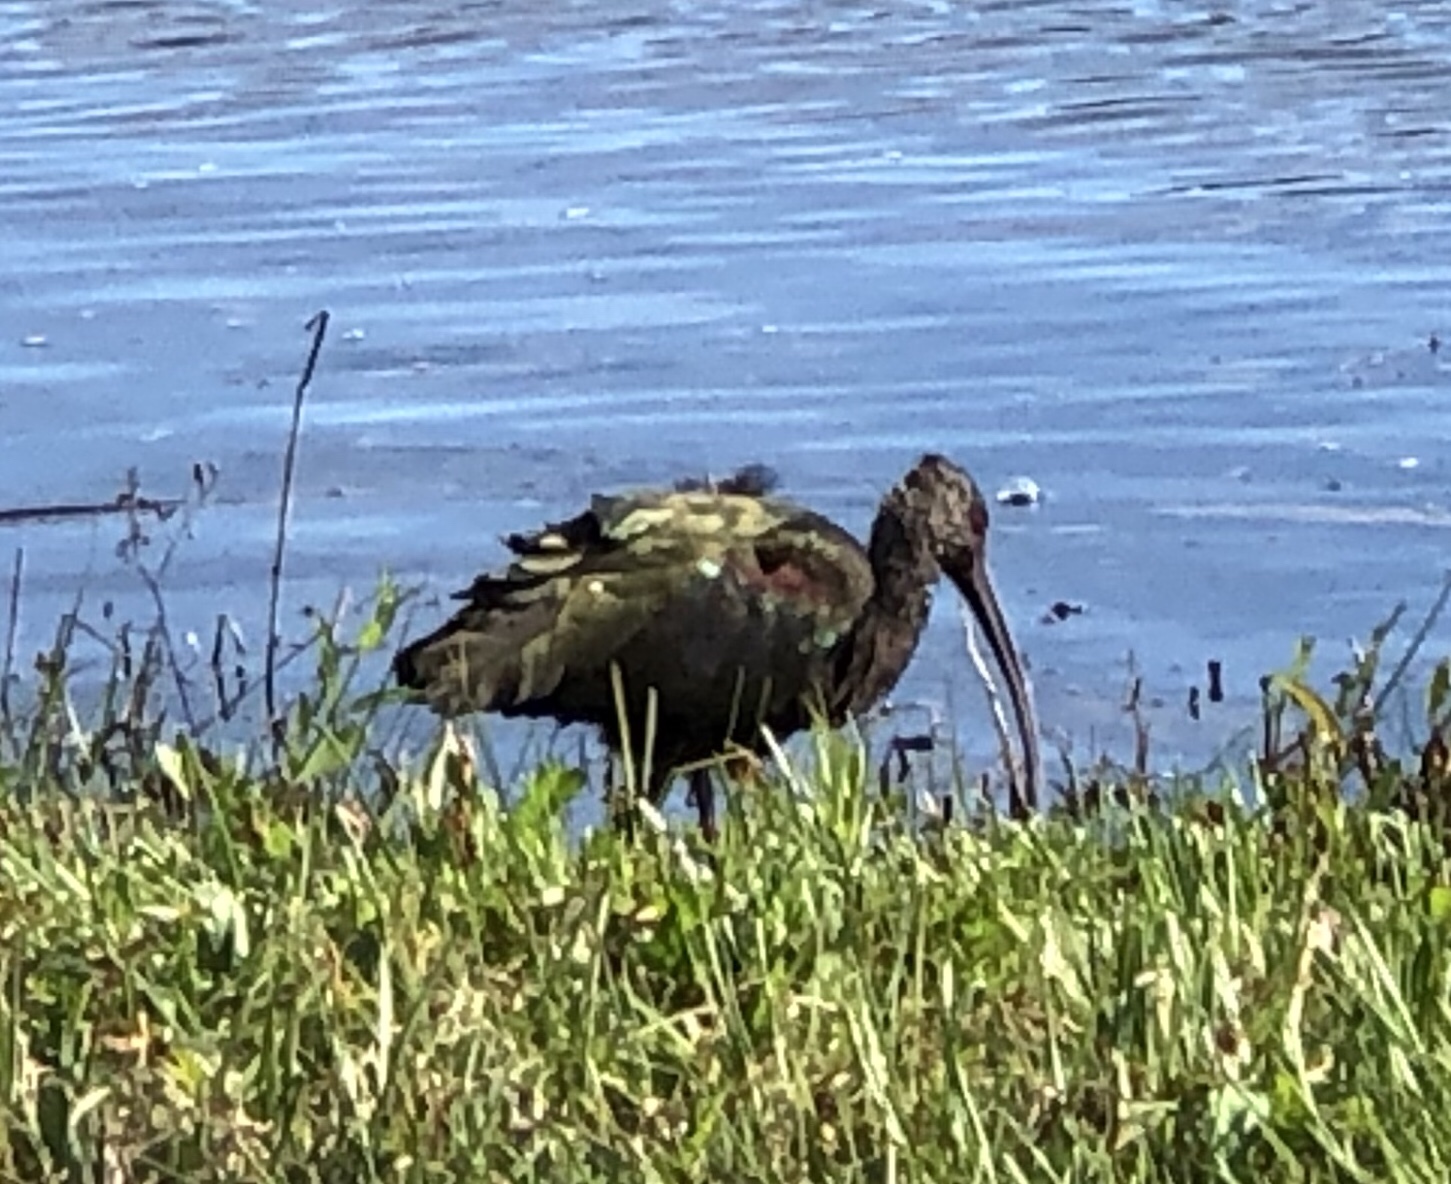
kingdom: Animalia
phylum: Chordata
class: Aves
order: Pelecaniformes
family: Threskiornithidae
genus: Plegadis
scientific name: Plegadis
